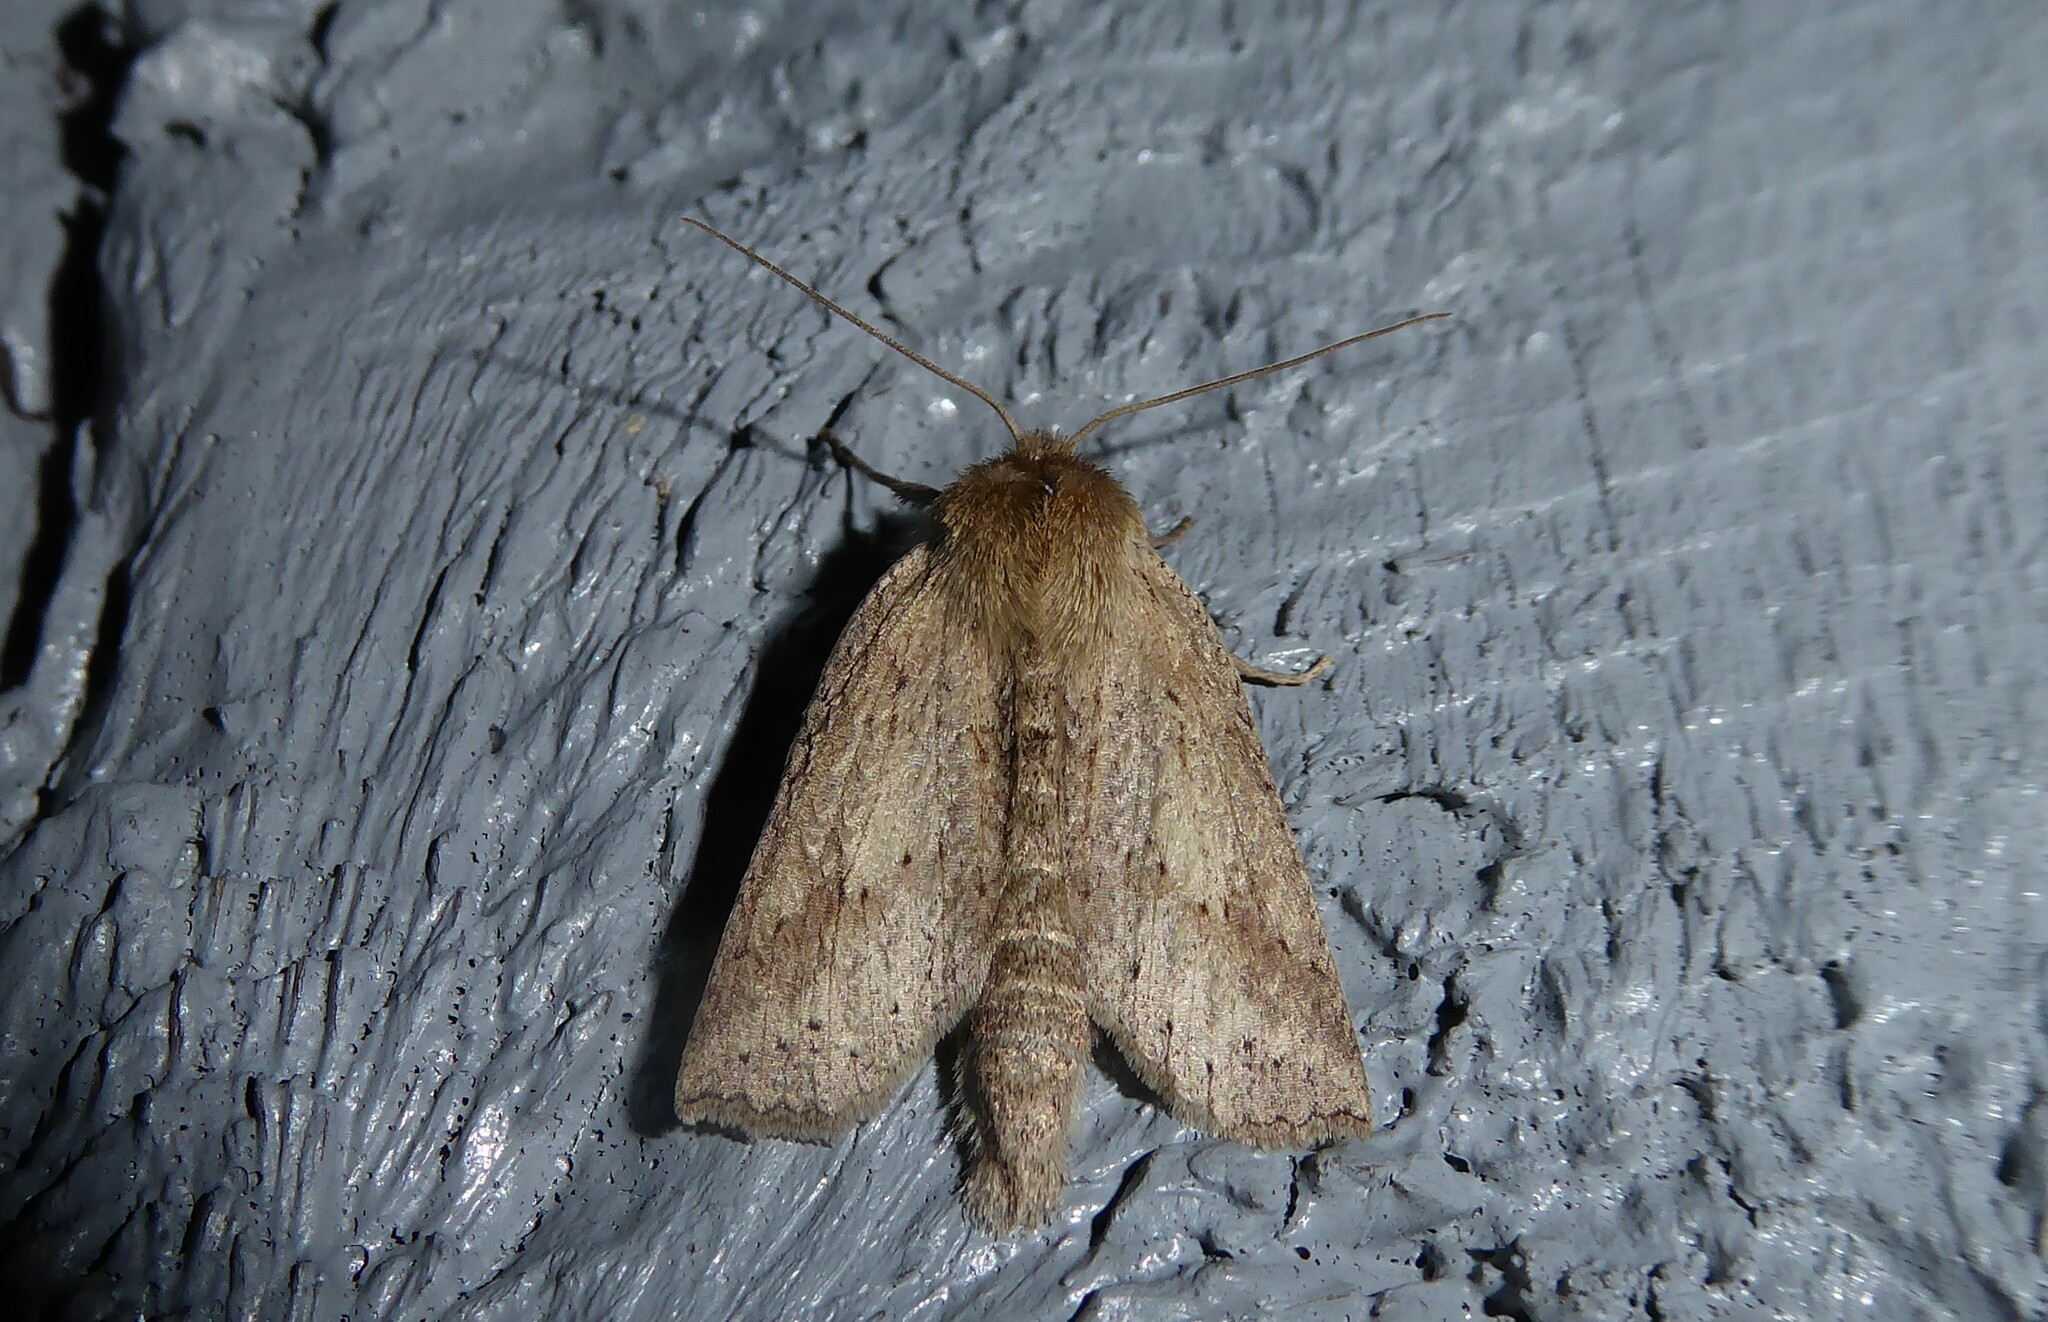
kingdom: Animalia
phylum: Arthropoda
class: Insecta
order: Lepidoptera
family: Geometridae
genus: Declana
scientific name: Declana leptomera
